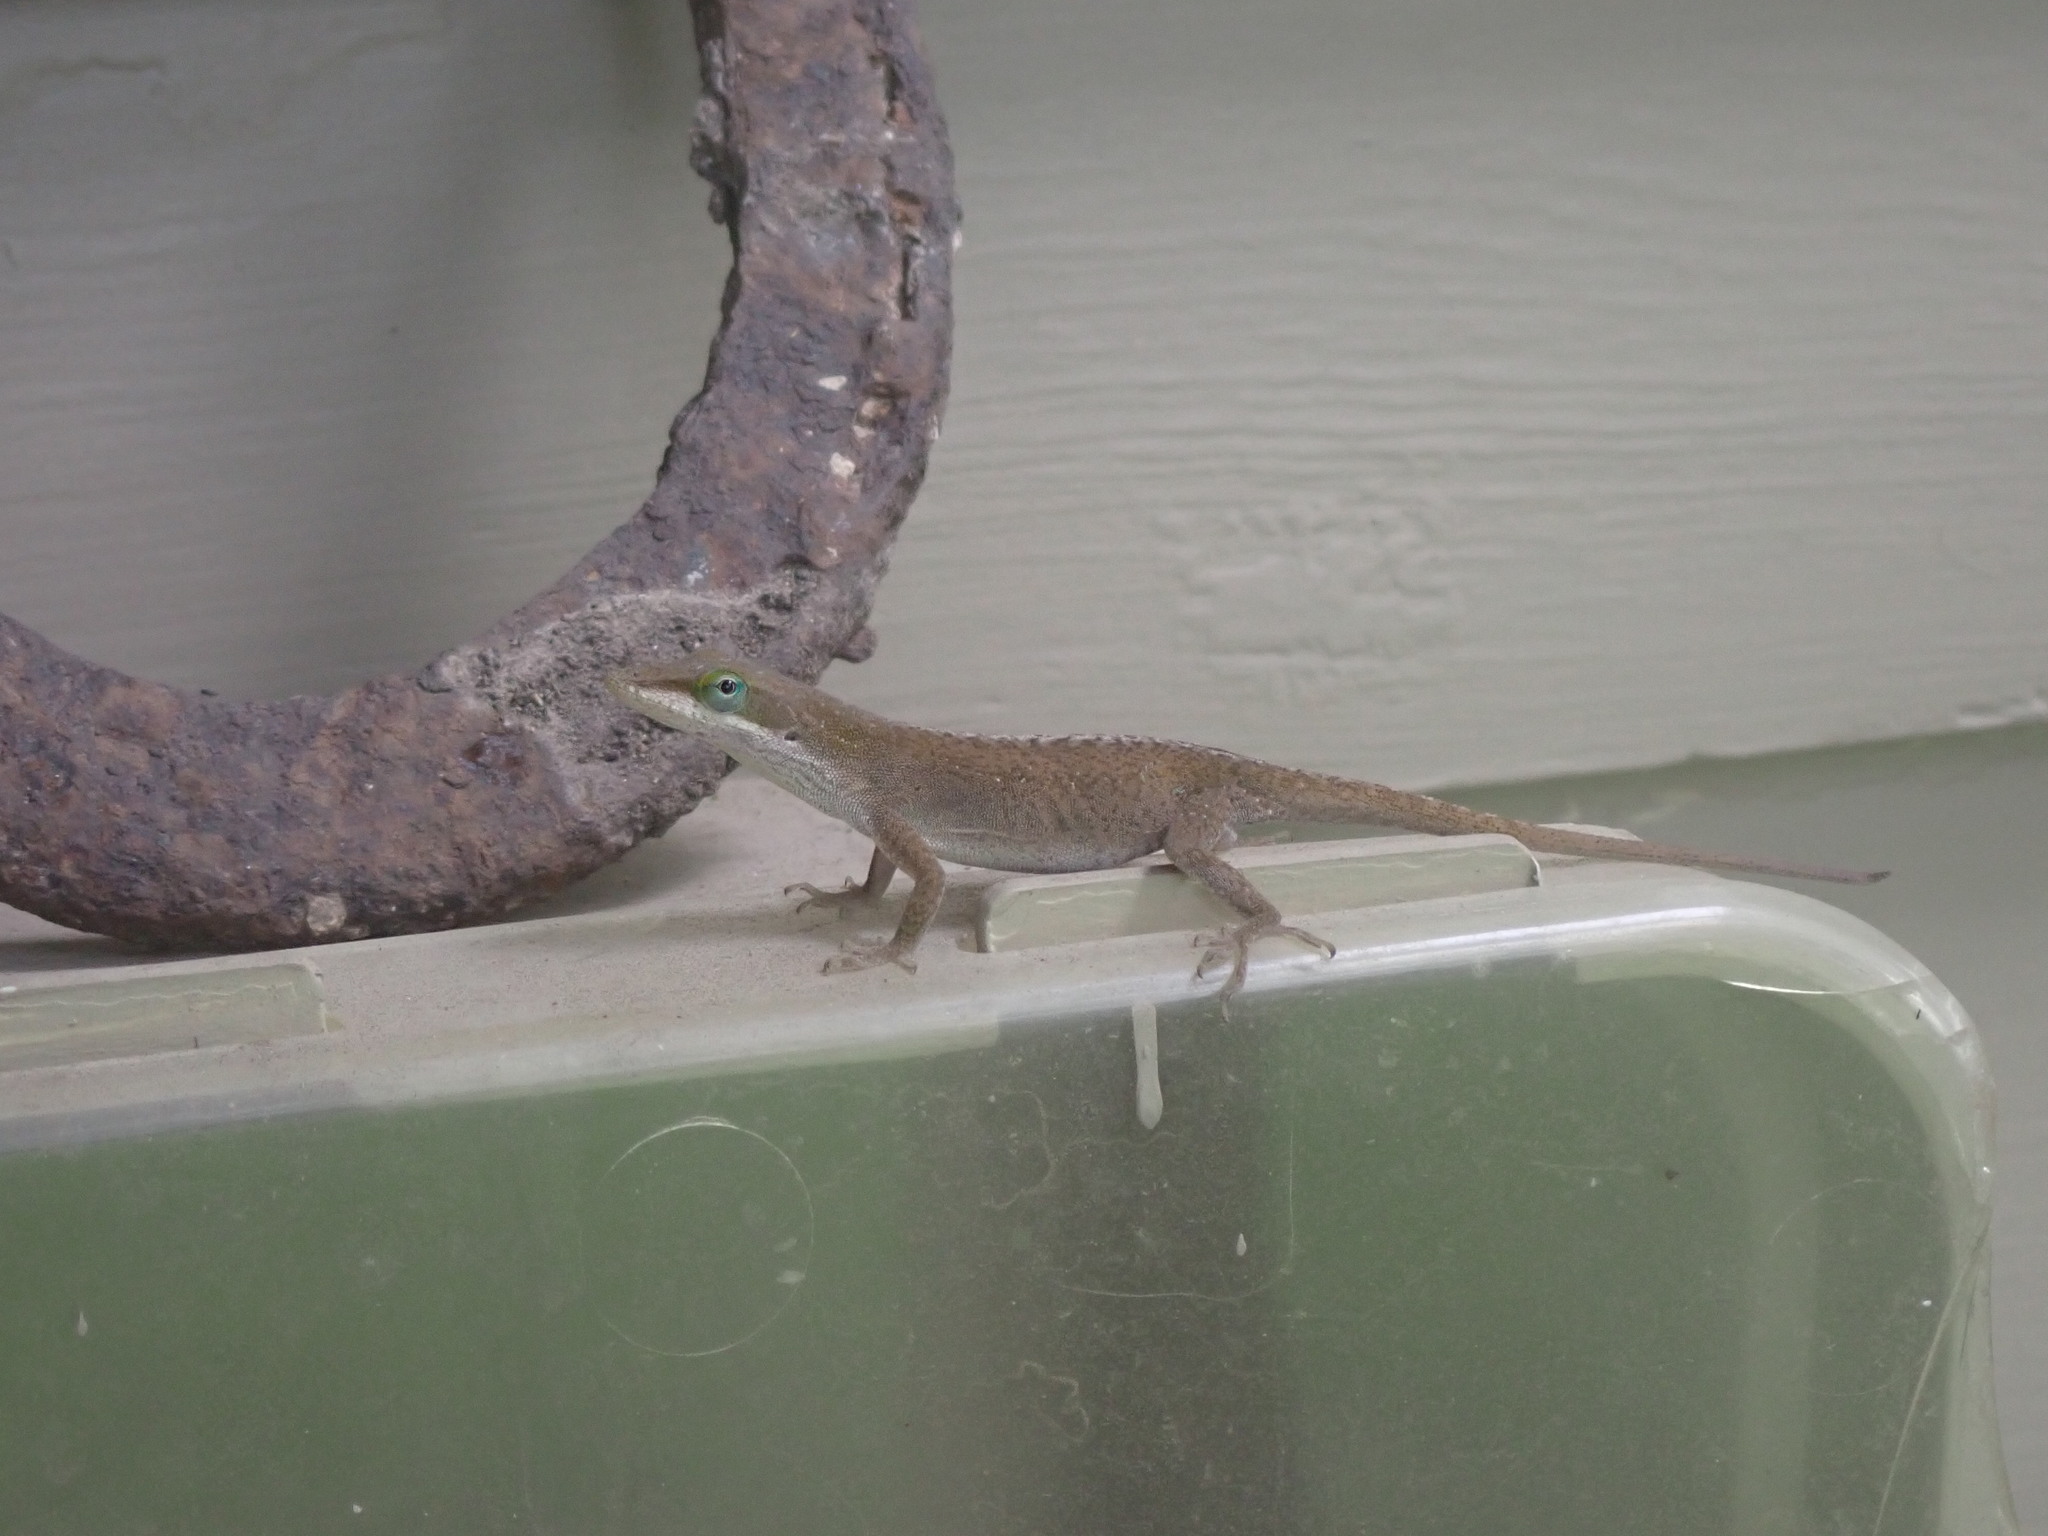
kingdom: Animalia
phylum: Chordata
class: Squamata
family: Dactyloidae
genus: Anolis
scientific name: Anolis carolinensis
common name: Green anole
